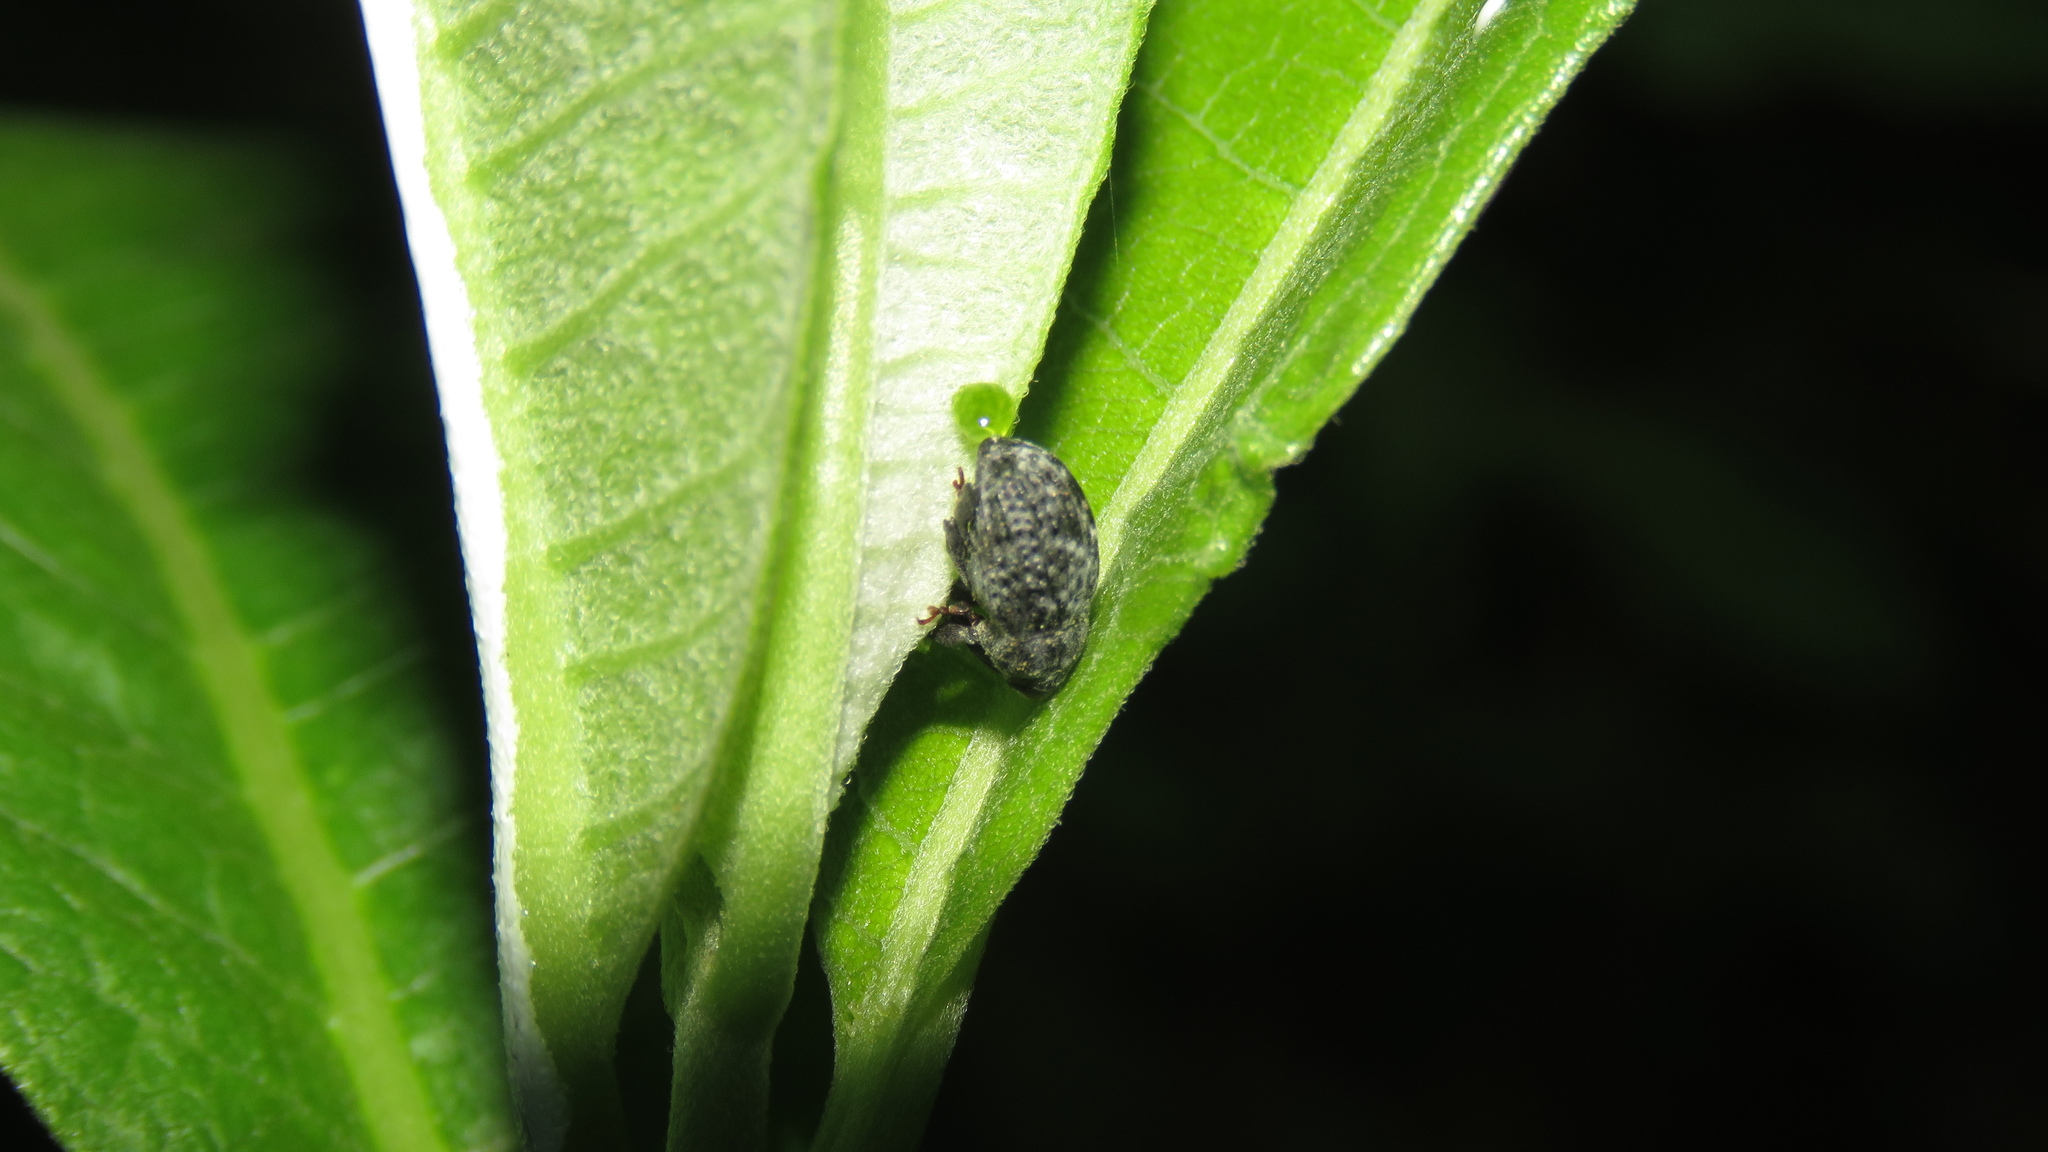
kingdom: Animalia
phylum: Arthropoda
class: Insecta
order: Coleoptera
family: Curculionidae
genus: Rhyssomatus
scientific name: Rhyssomatus lineaticollis
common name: Milkweed stem weevil
